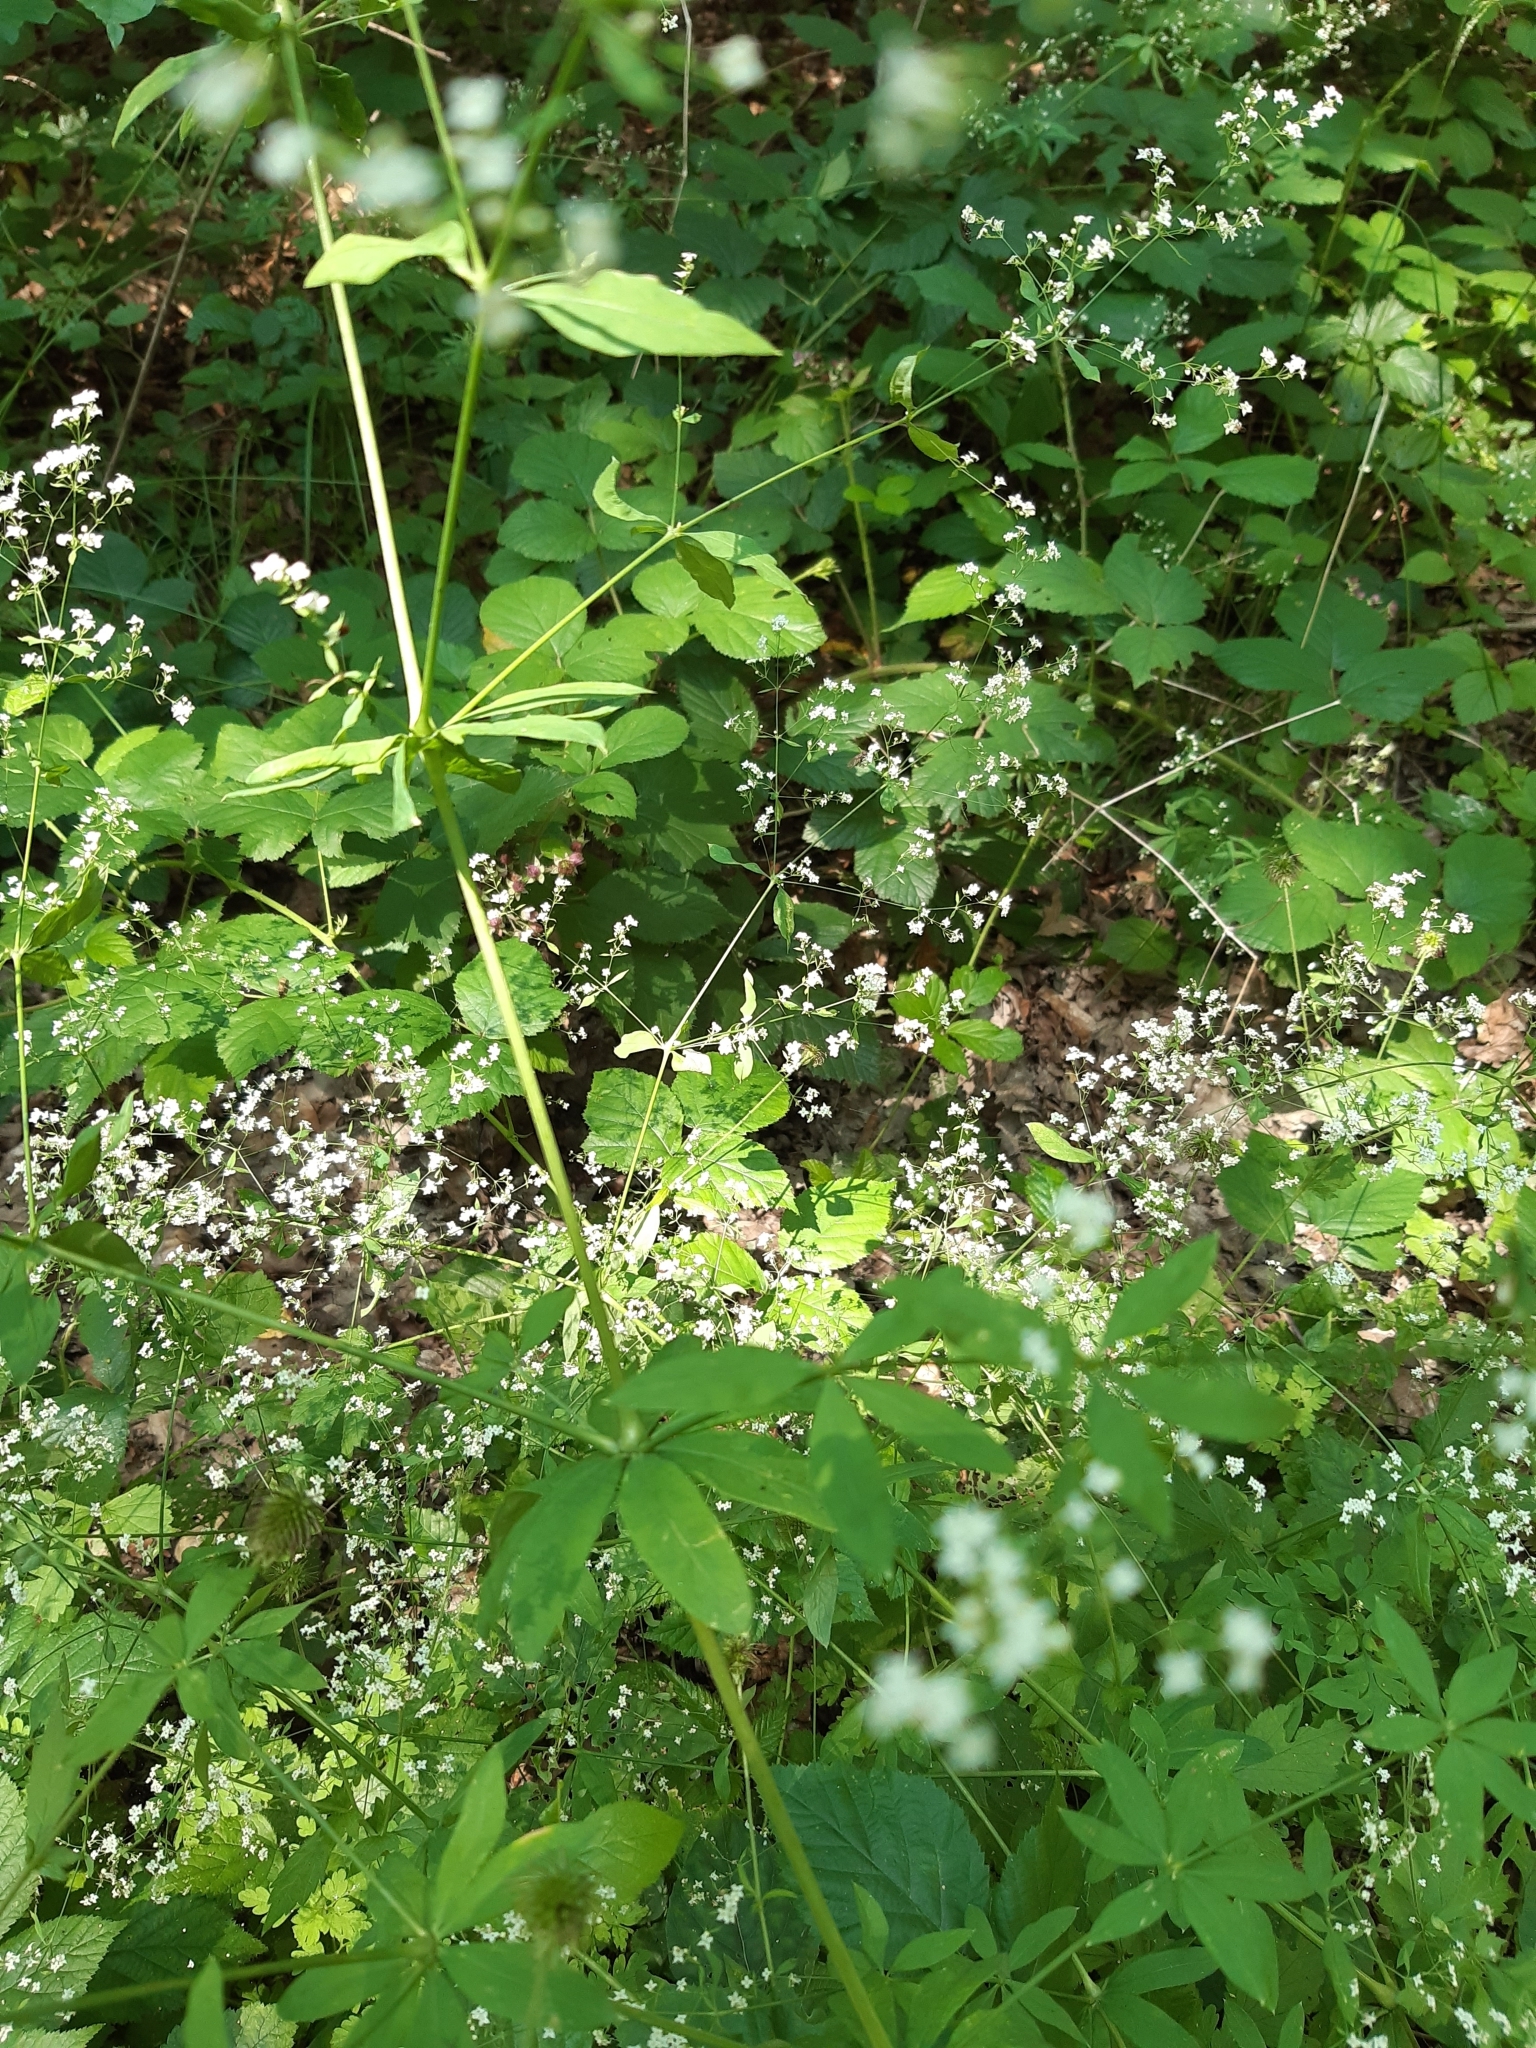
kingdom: Plantae
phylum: Tracheophyta
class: Magnoliopsida
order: Gentianales
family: Rubiaceae
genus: Galium
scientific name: Galium sylvaticum
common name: Wood bedstraw
